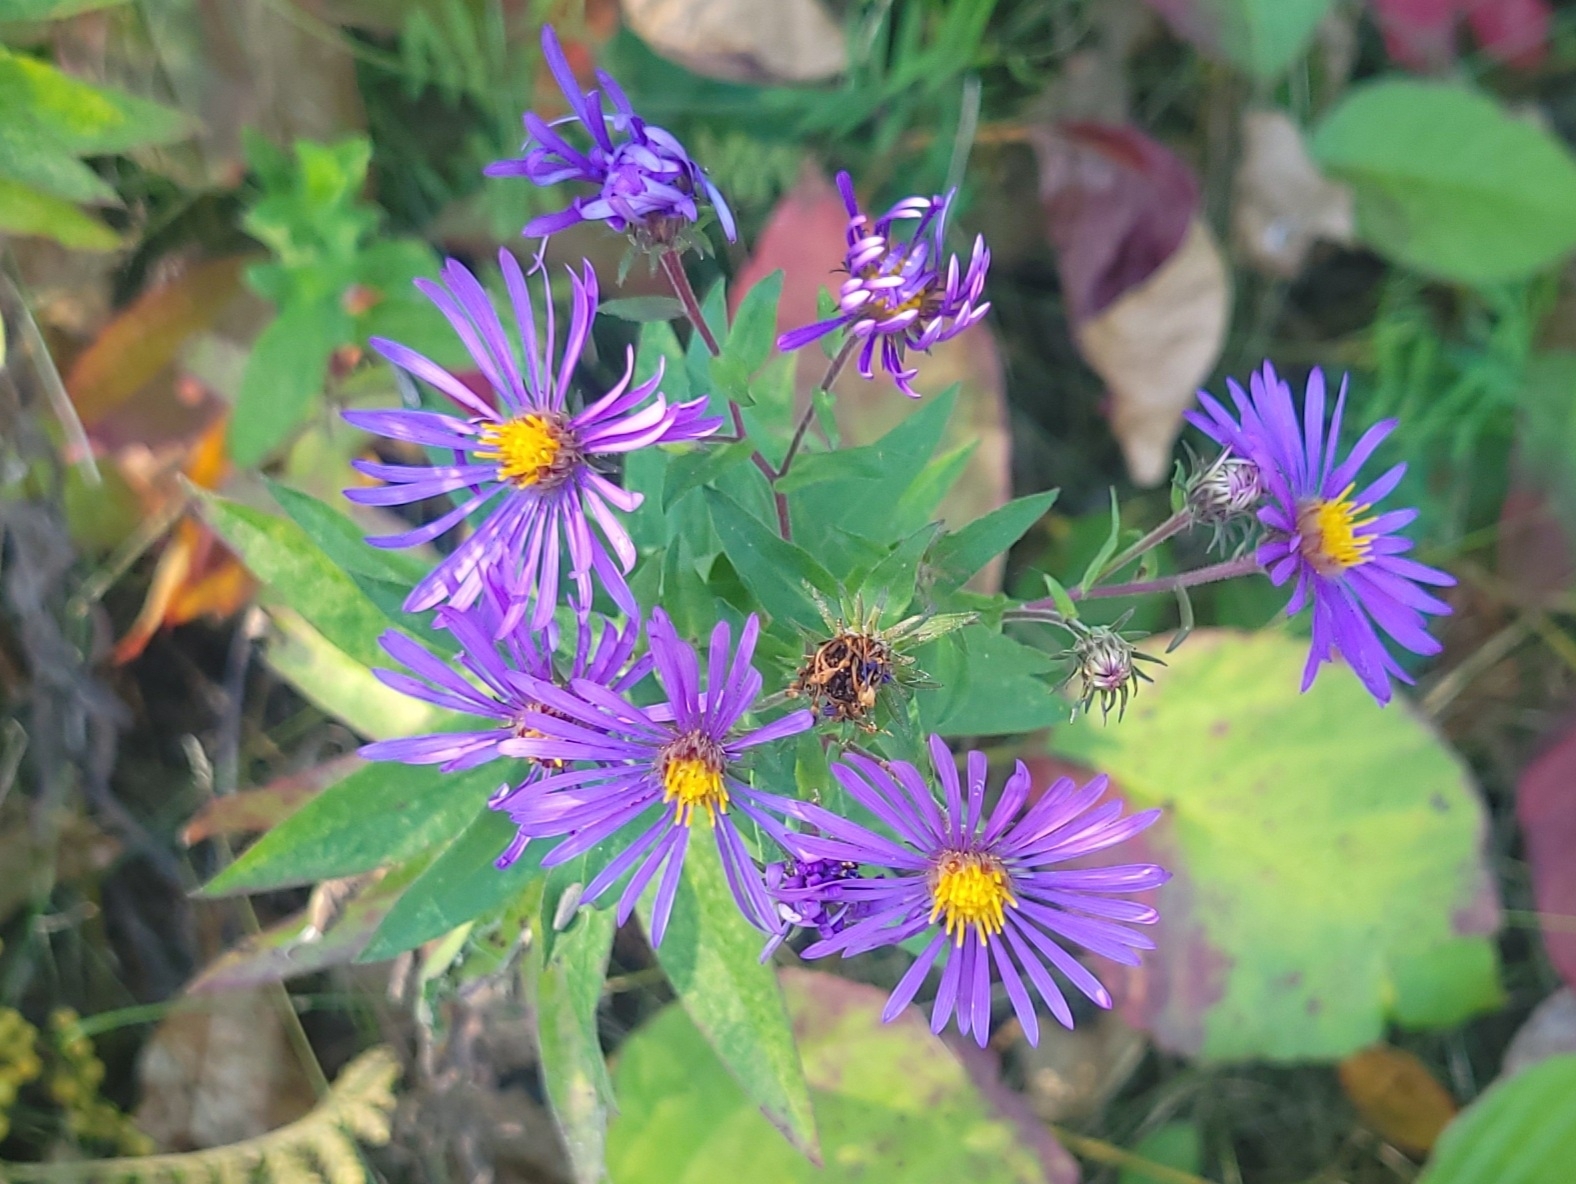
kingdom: Plantae
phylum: Tracheophyta
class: Magnoliopsida
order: Asterales
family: Asteraceae
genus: Symphyotrichum
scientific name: Symphyotrichum novae-angliae
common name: Michaelmas daisy
